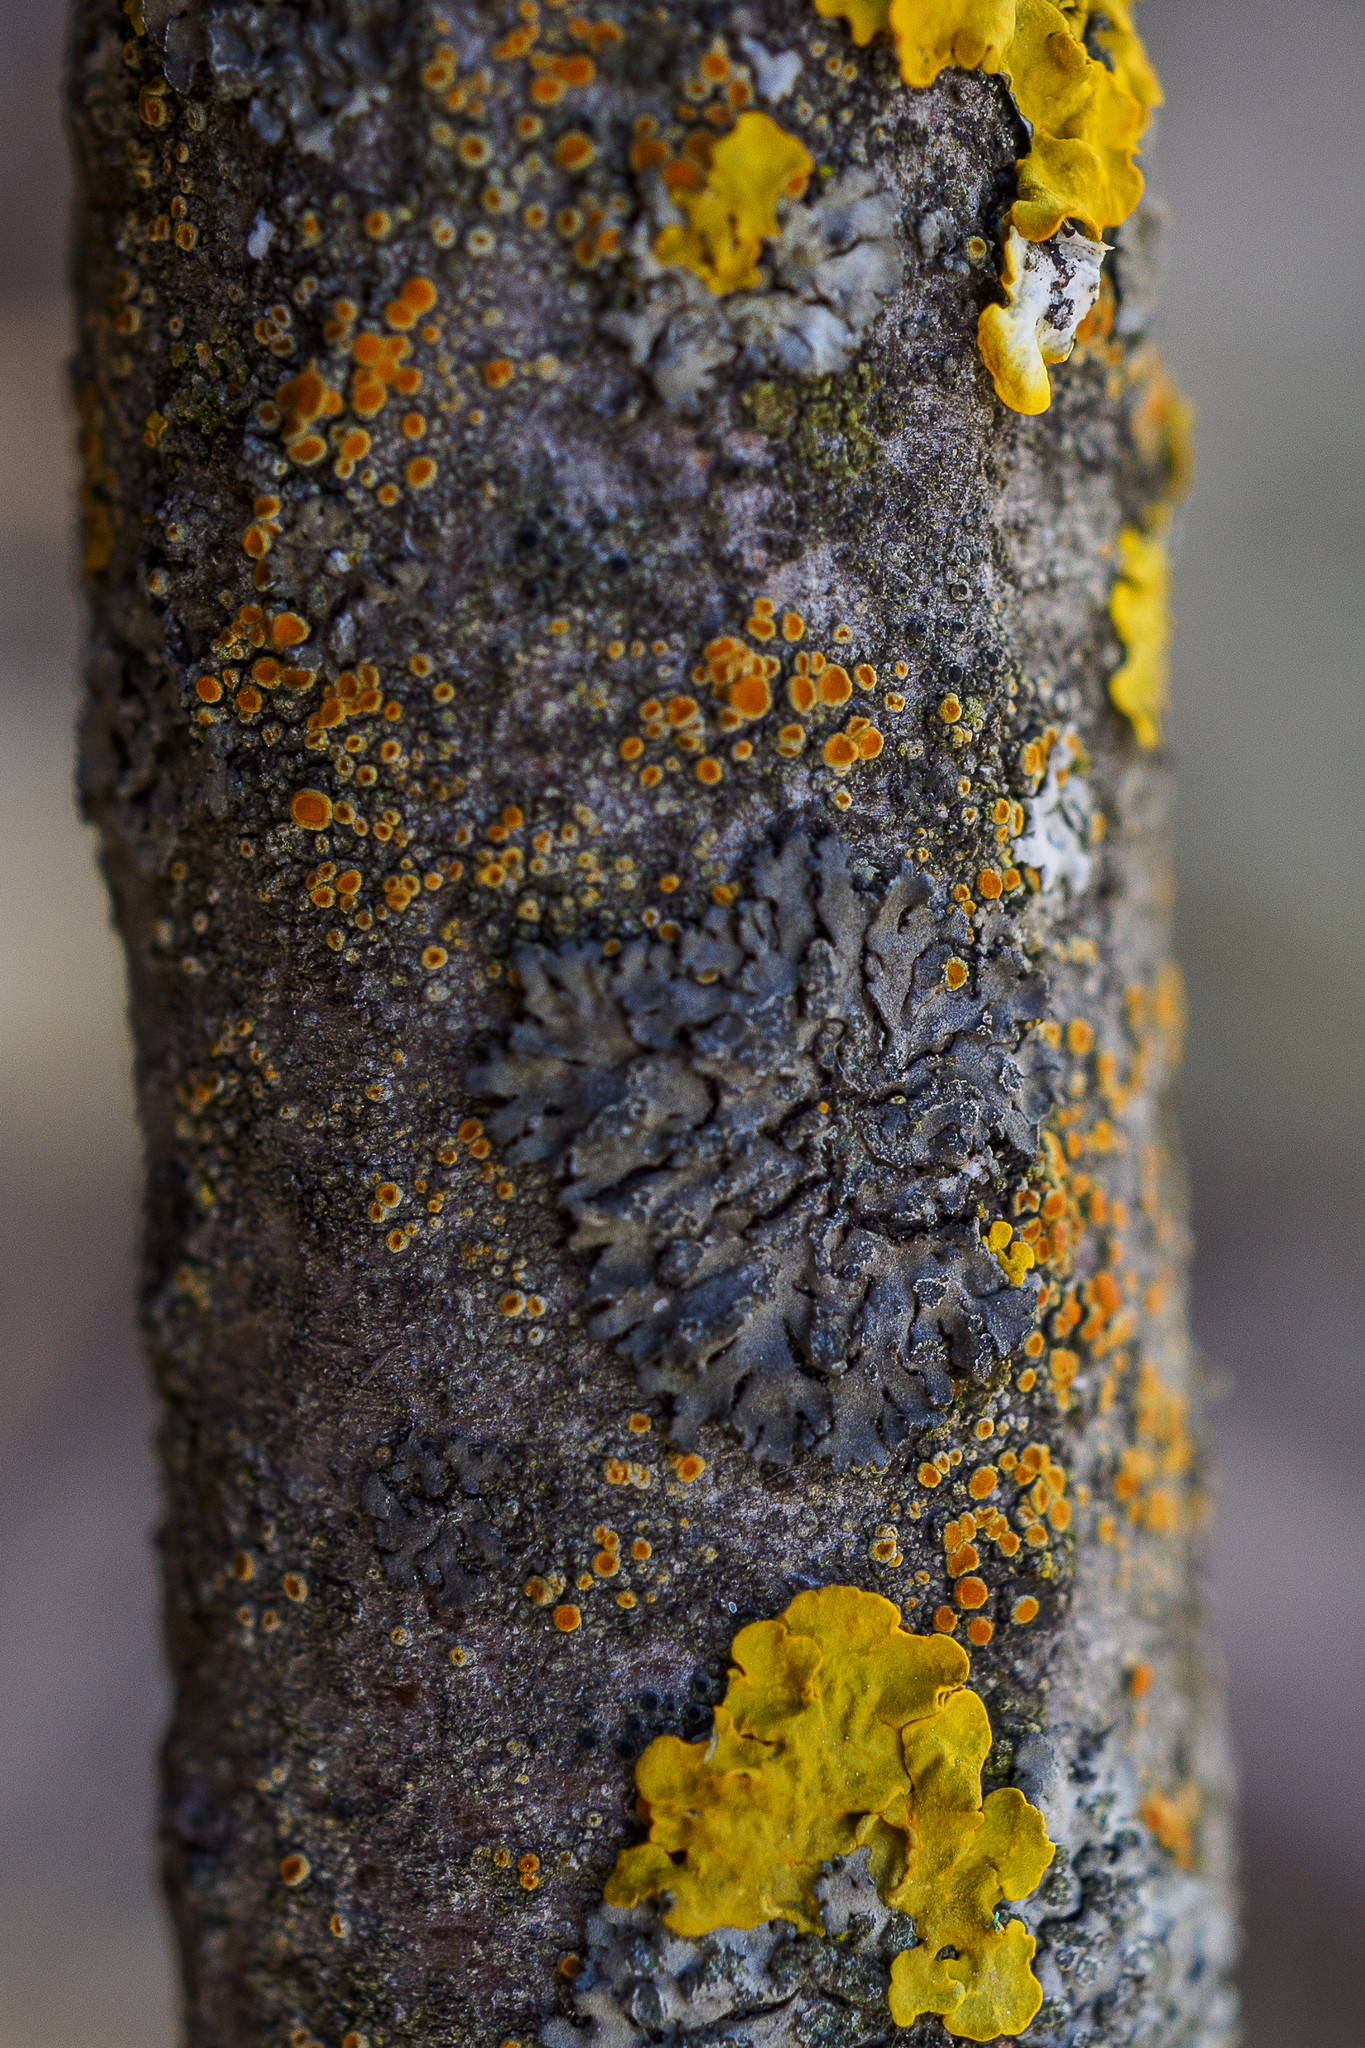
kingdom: Fungi
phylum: Ascomycota
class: Lecanoromycetes
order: Caliciales
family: Physciaceae
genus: Phaeophyscia
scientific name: Phaeophyscia orbicularis
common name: Mealy shadow lichen
